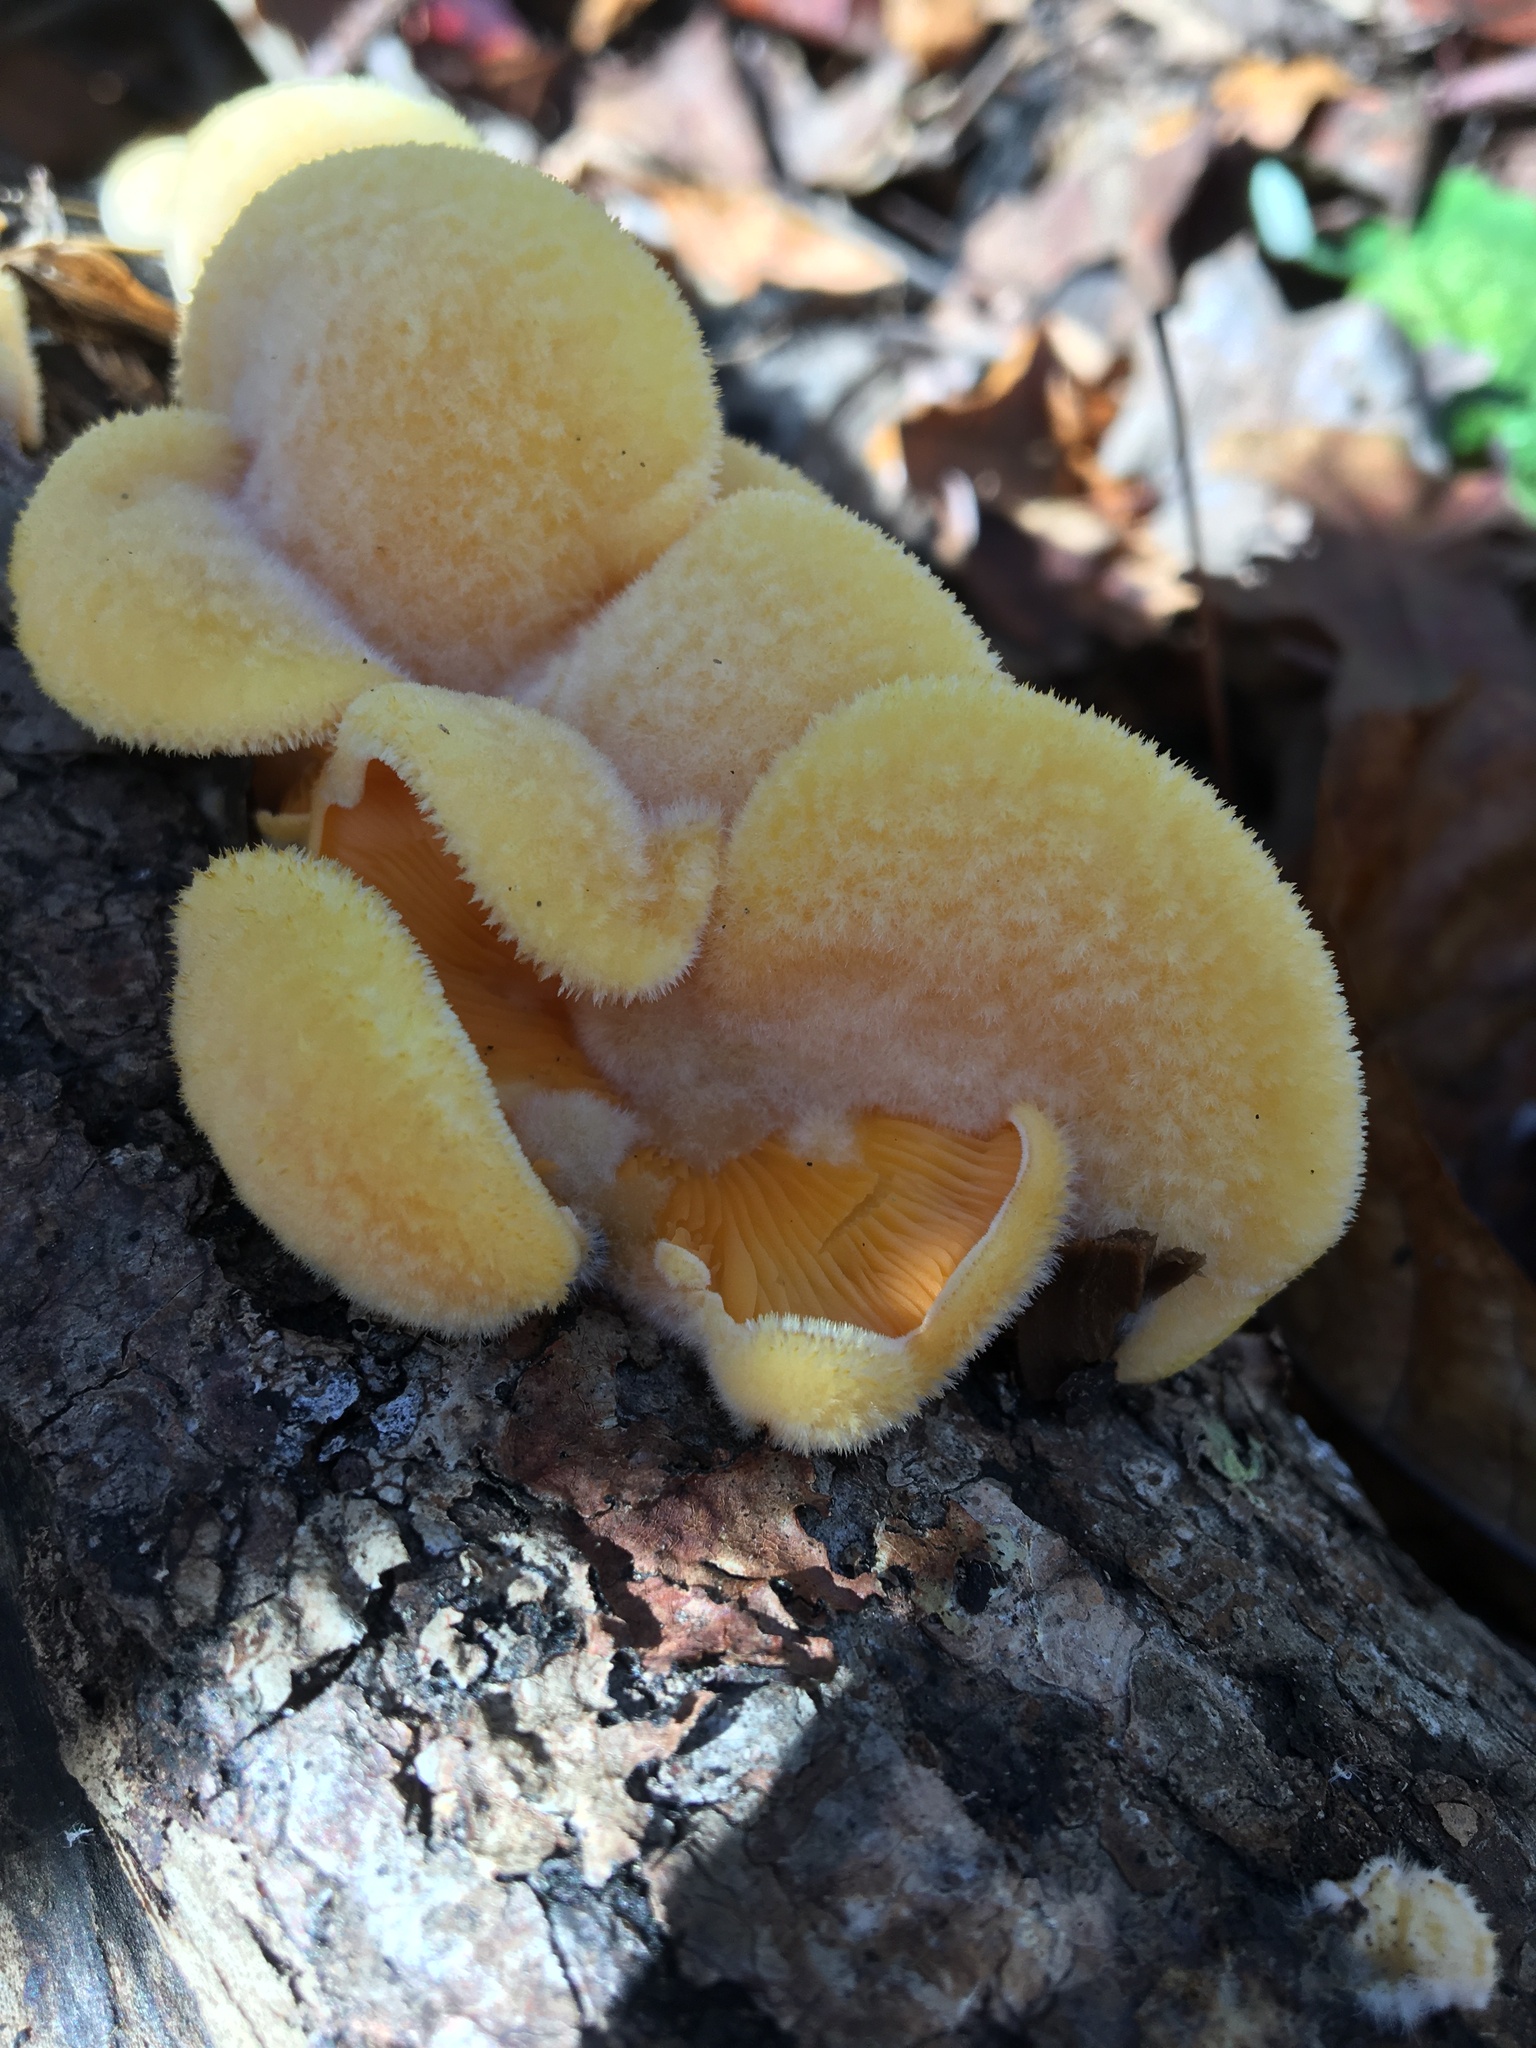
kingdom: Fungi
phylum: Basidiomycota
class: Agaricomycetes
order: Agaricales
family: Phyllotopsidaceae
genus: Phyllotopsis
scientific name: Phyllotopsis nidulans
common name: Orange mock oyster
